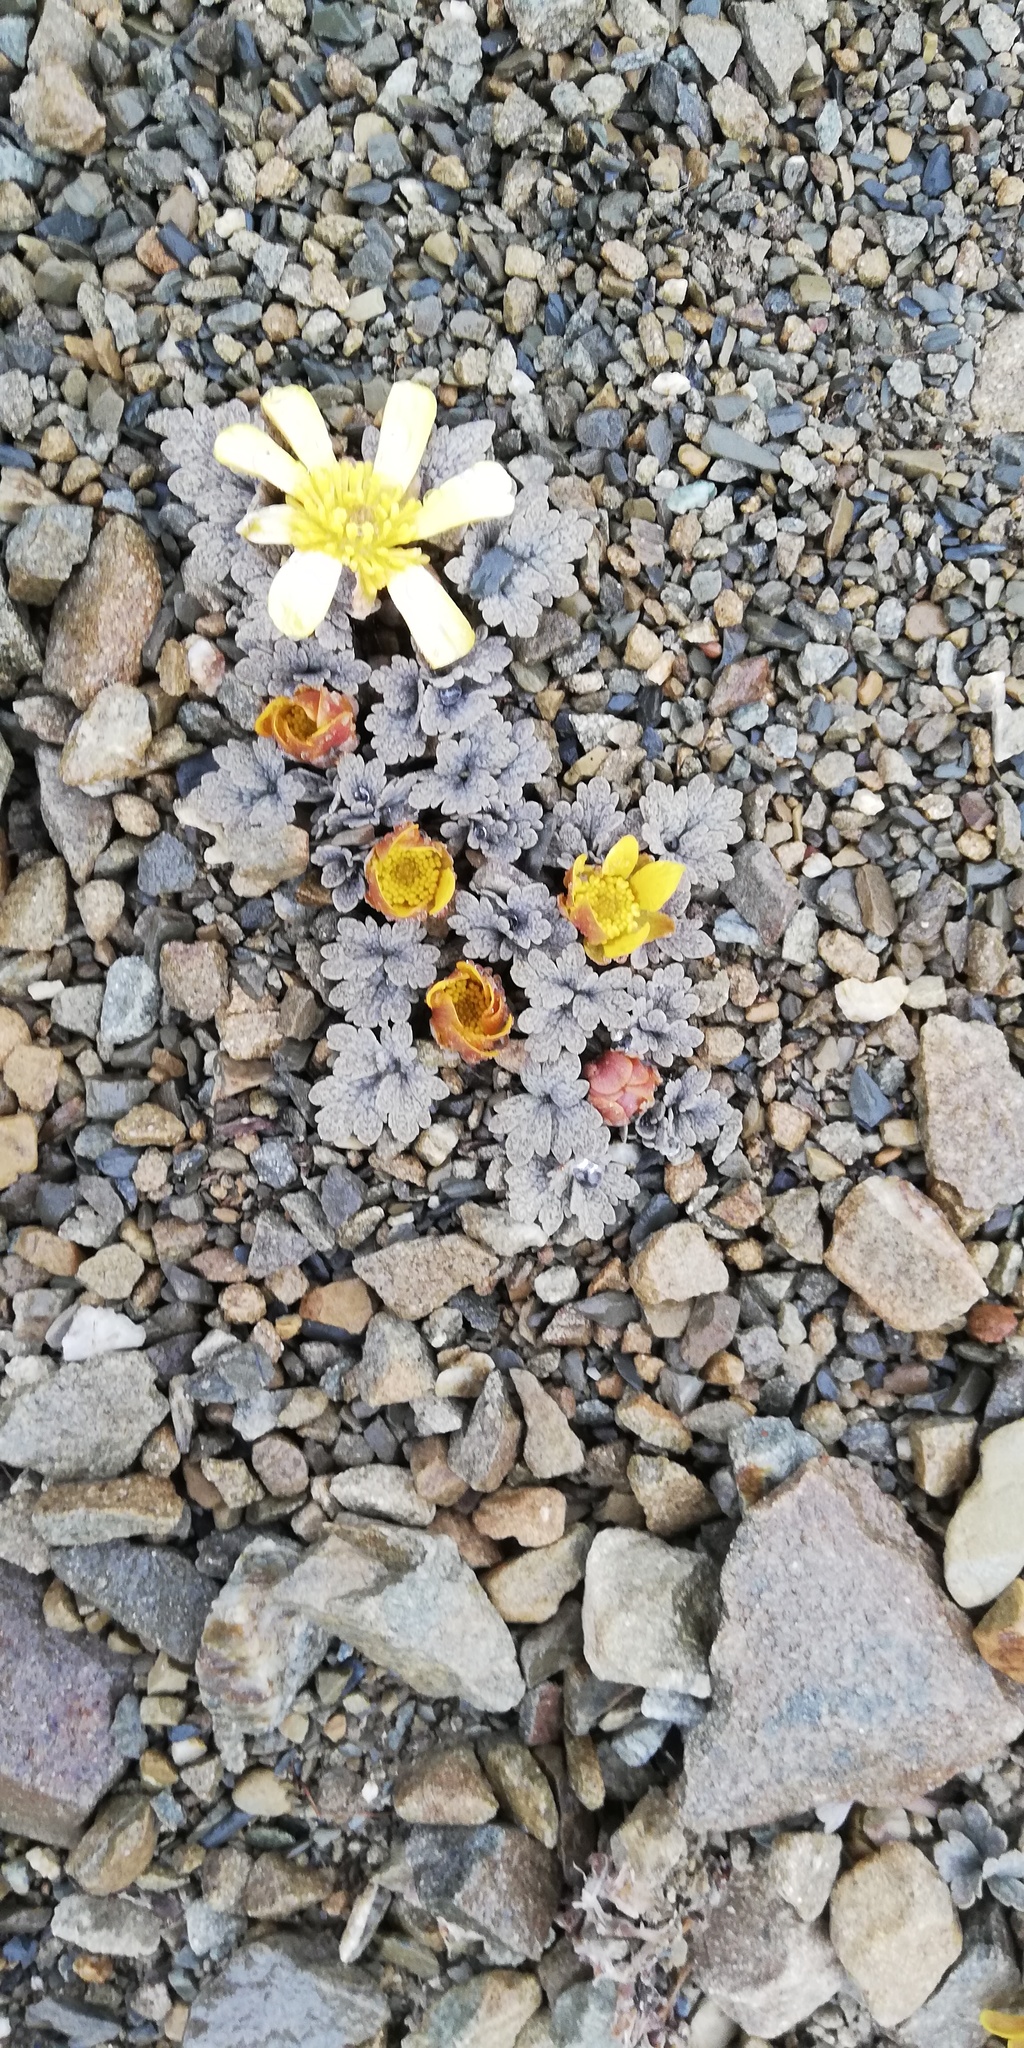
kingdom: Plantae
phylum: Tracheophyta
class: Magnoliopsida
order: Ranunculales
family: Ranunculaceae
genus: Ranunculus
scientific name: Ranunculus crithmifolius
